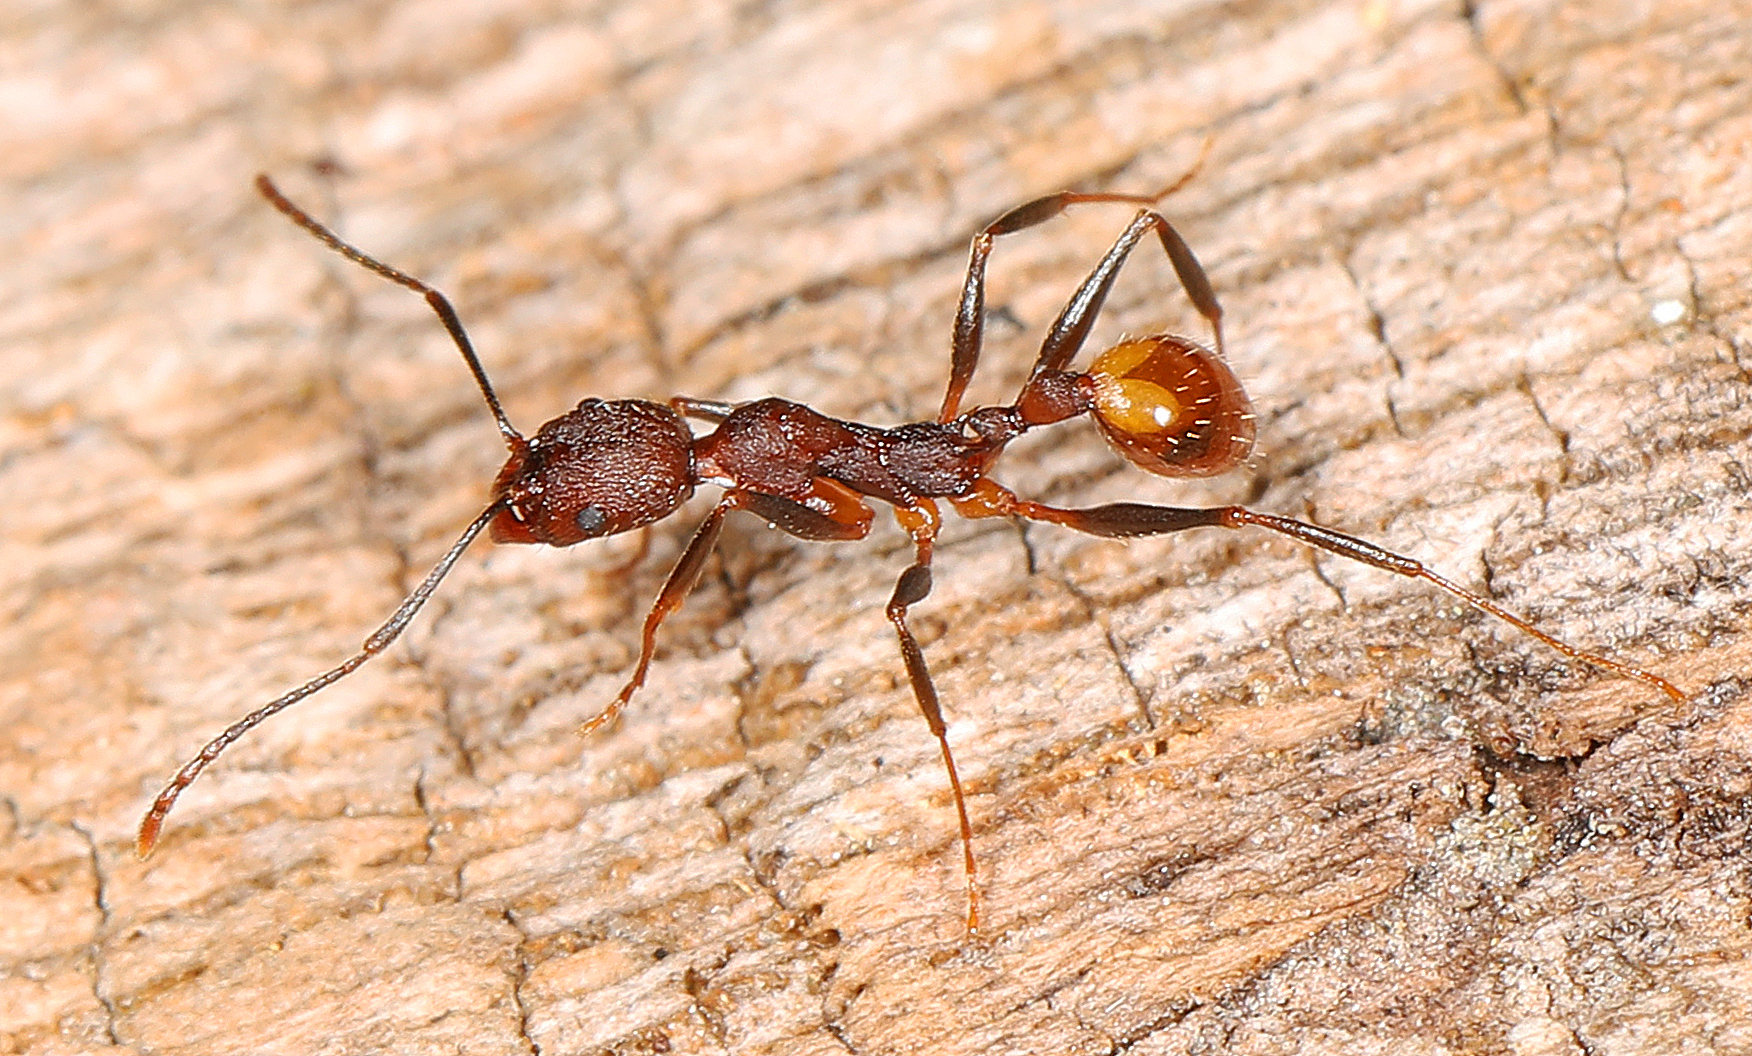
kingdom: Animalia
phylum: Arthropoda
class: Insecta
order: Hymenoptera
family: Formicidae
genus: Aphaenogaster
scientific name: Aphaenogaster lamellidens
